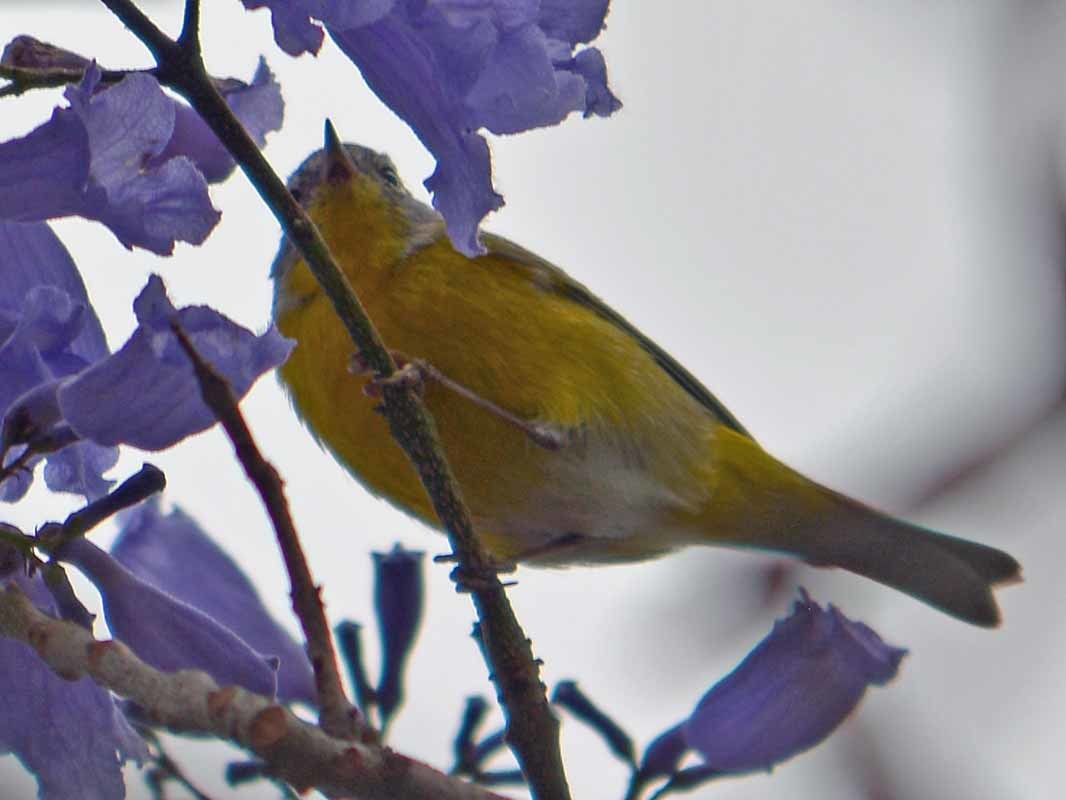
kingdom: Animalia
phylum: Chordata
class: Aves
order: Passeriformes
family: Parulidae
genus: Leiothlypis
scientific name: Leiothlypis ruficapilla
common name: Nashville warbler
